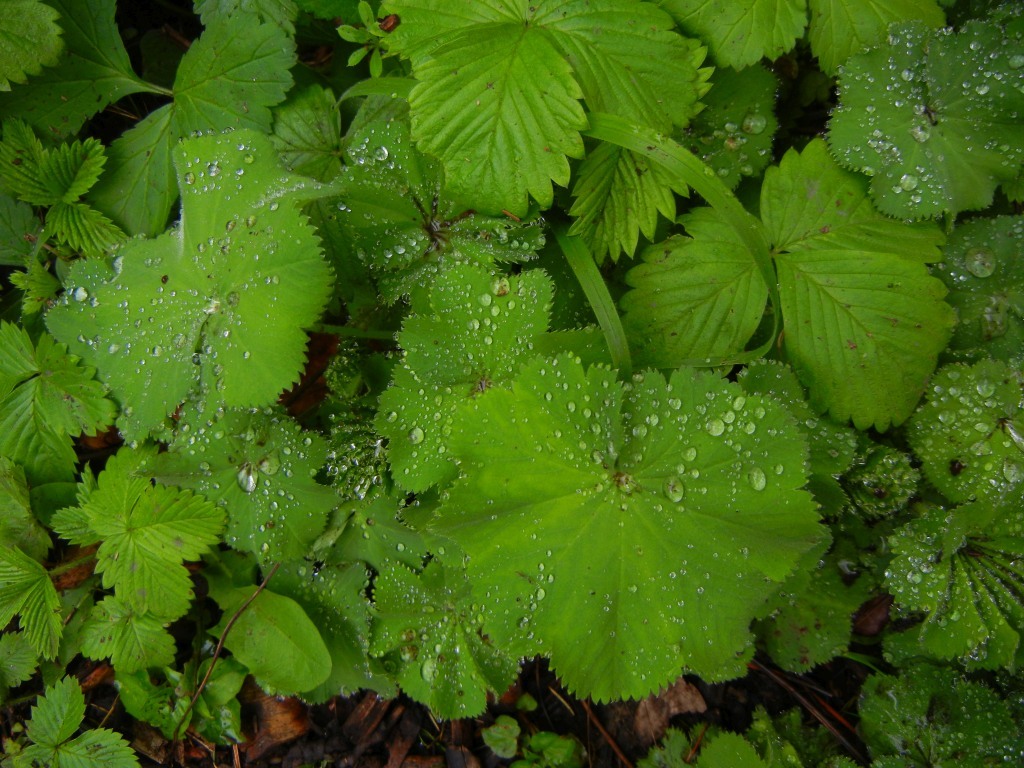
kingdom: Plantae
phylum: Tracheophyta
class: Magnoliopsida
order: Rosales
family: Rosaceae
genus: Alchemilla
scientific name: Alchemilla mollis
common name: Lady's-mantle
